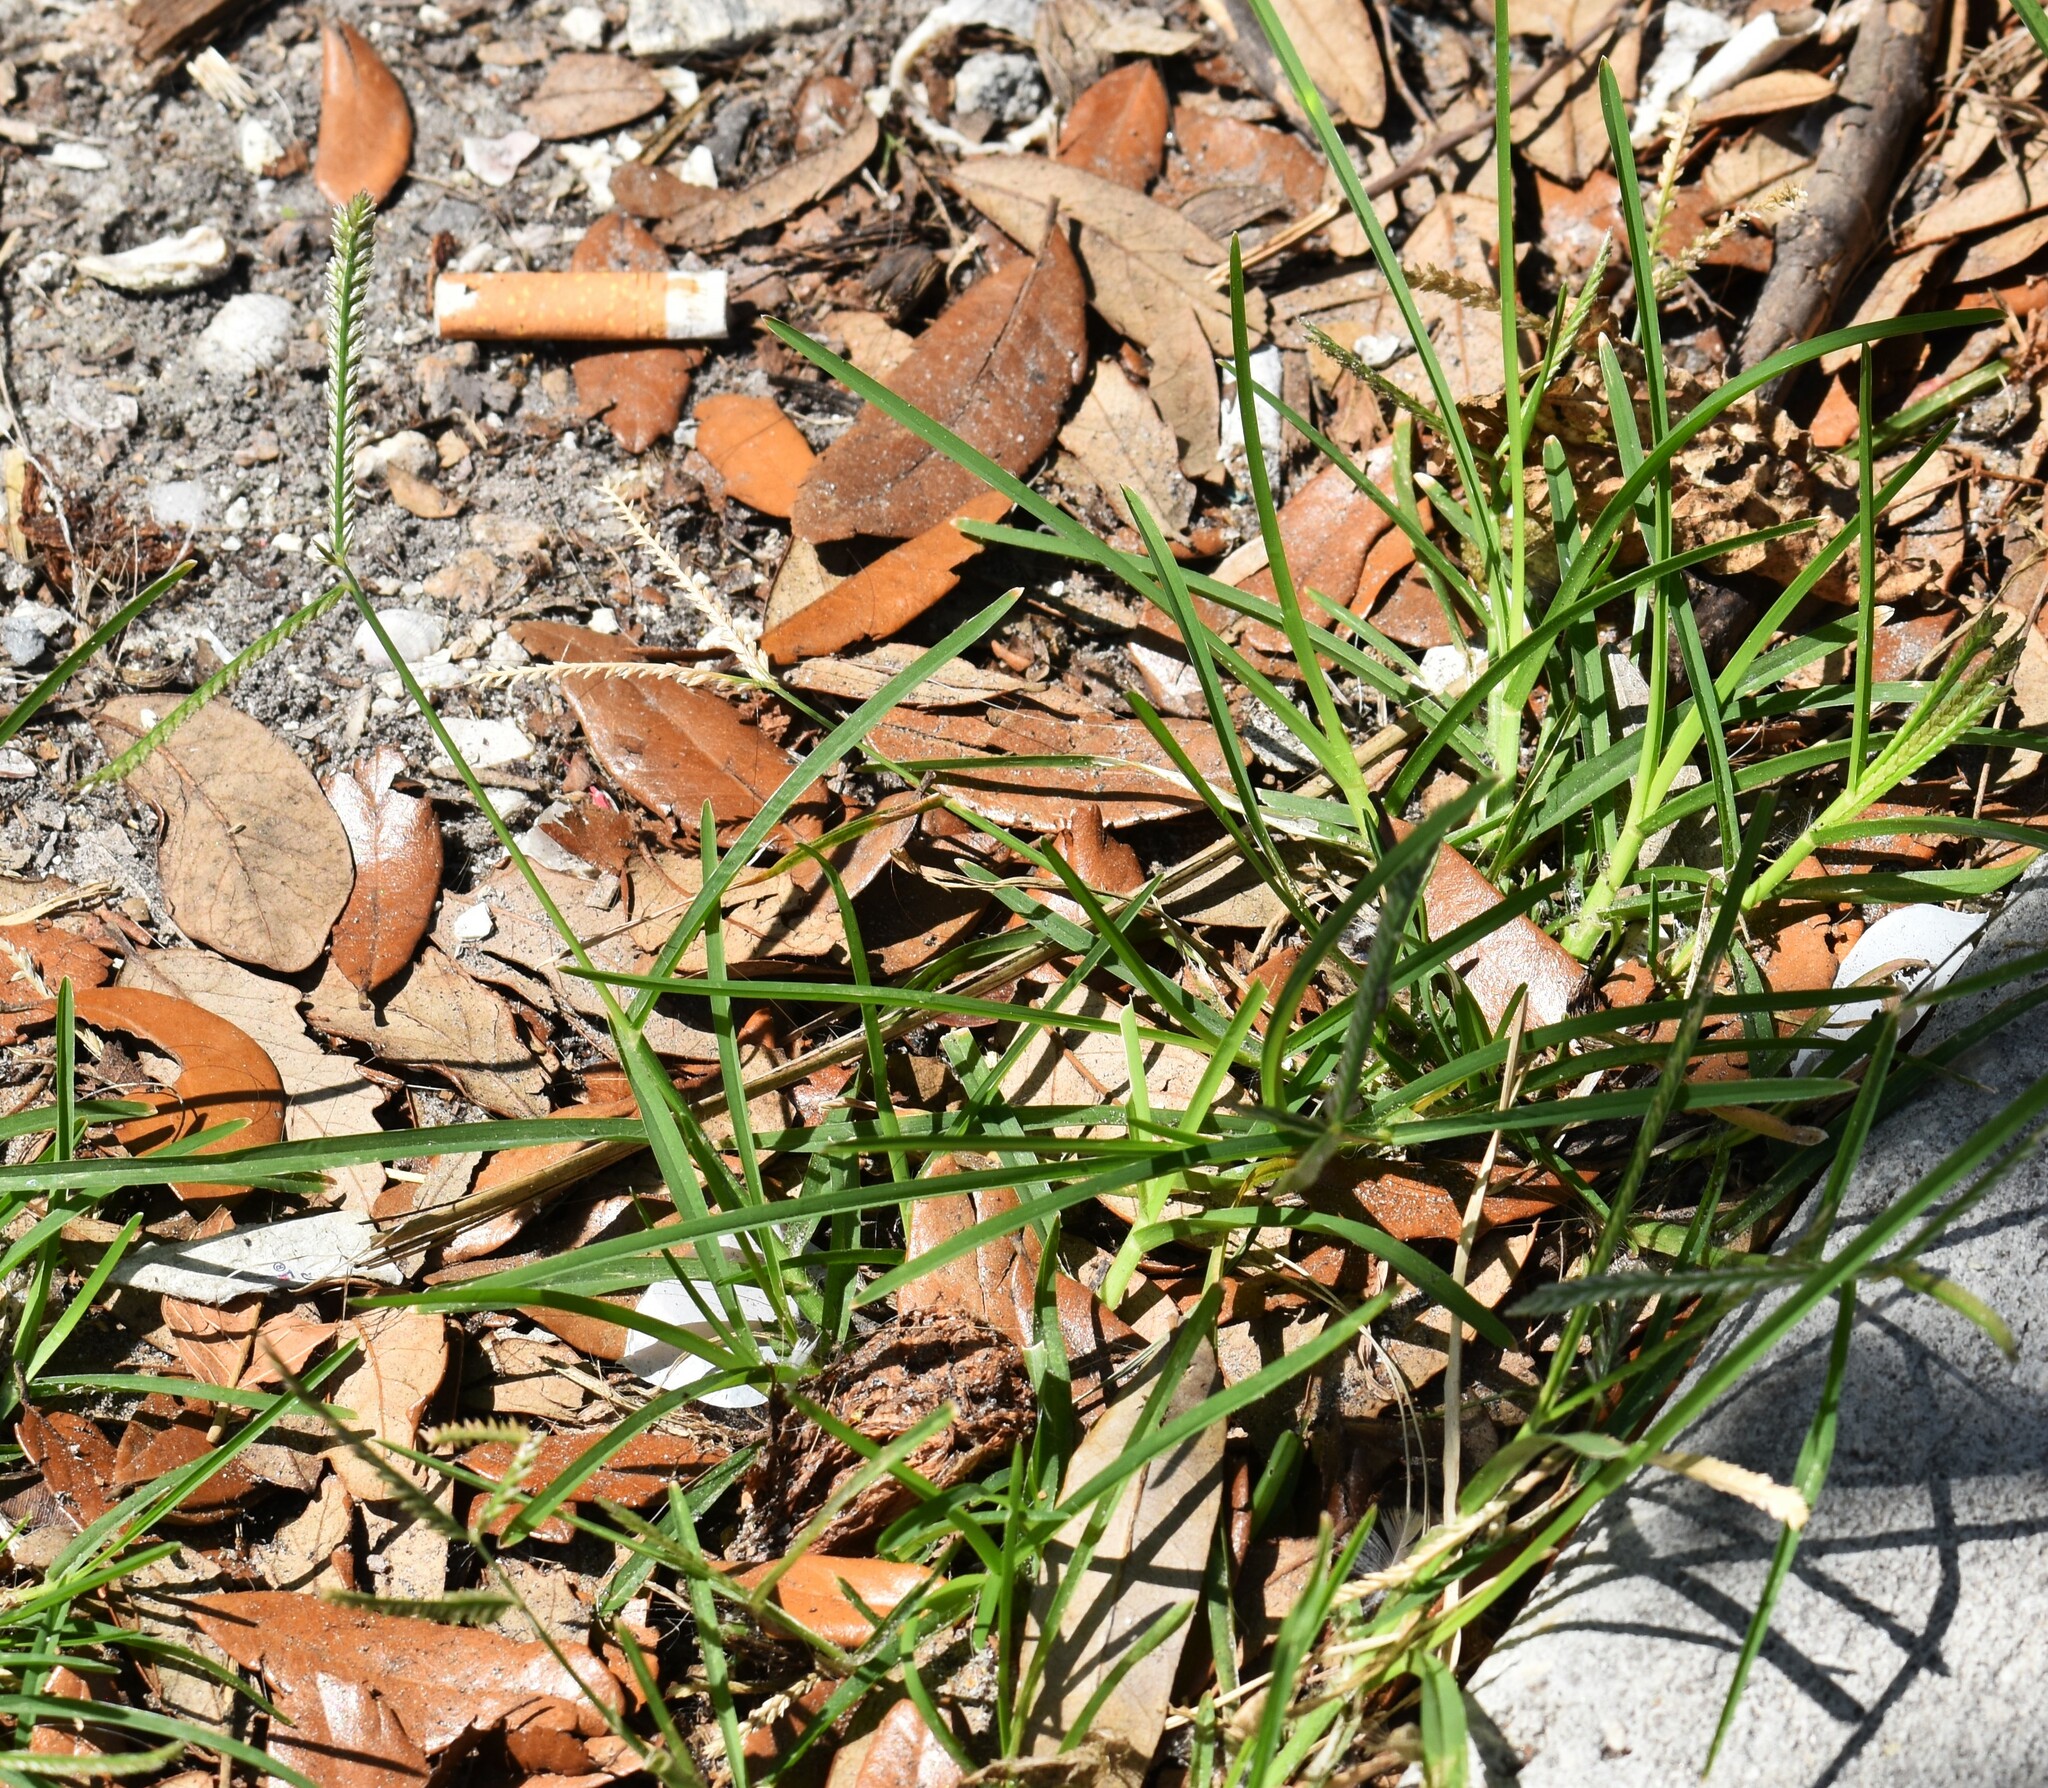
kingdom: Plantae
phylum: Tracheophyta
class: Liliopsida
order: Poales
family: Poaceae
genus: Eleusine
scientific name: Eleusine indica
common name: Yard-grass
